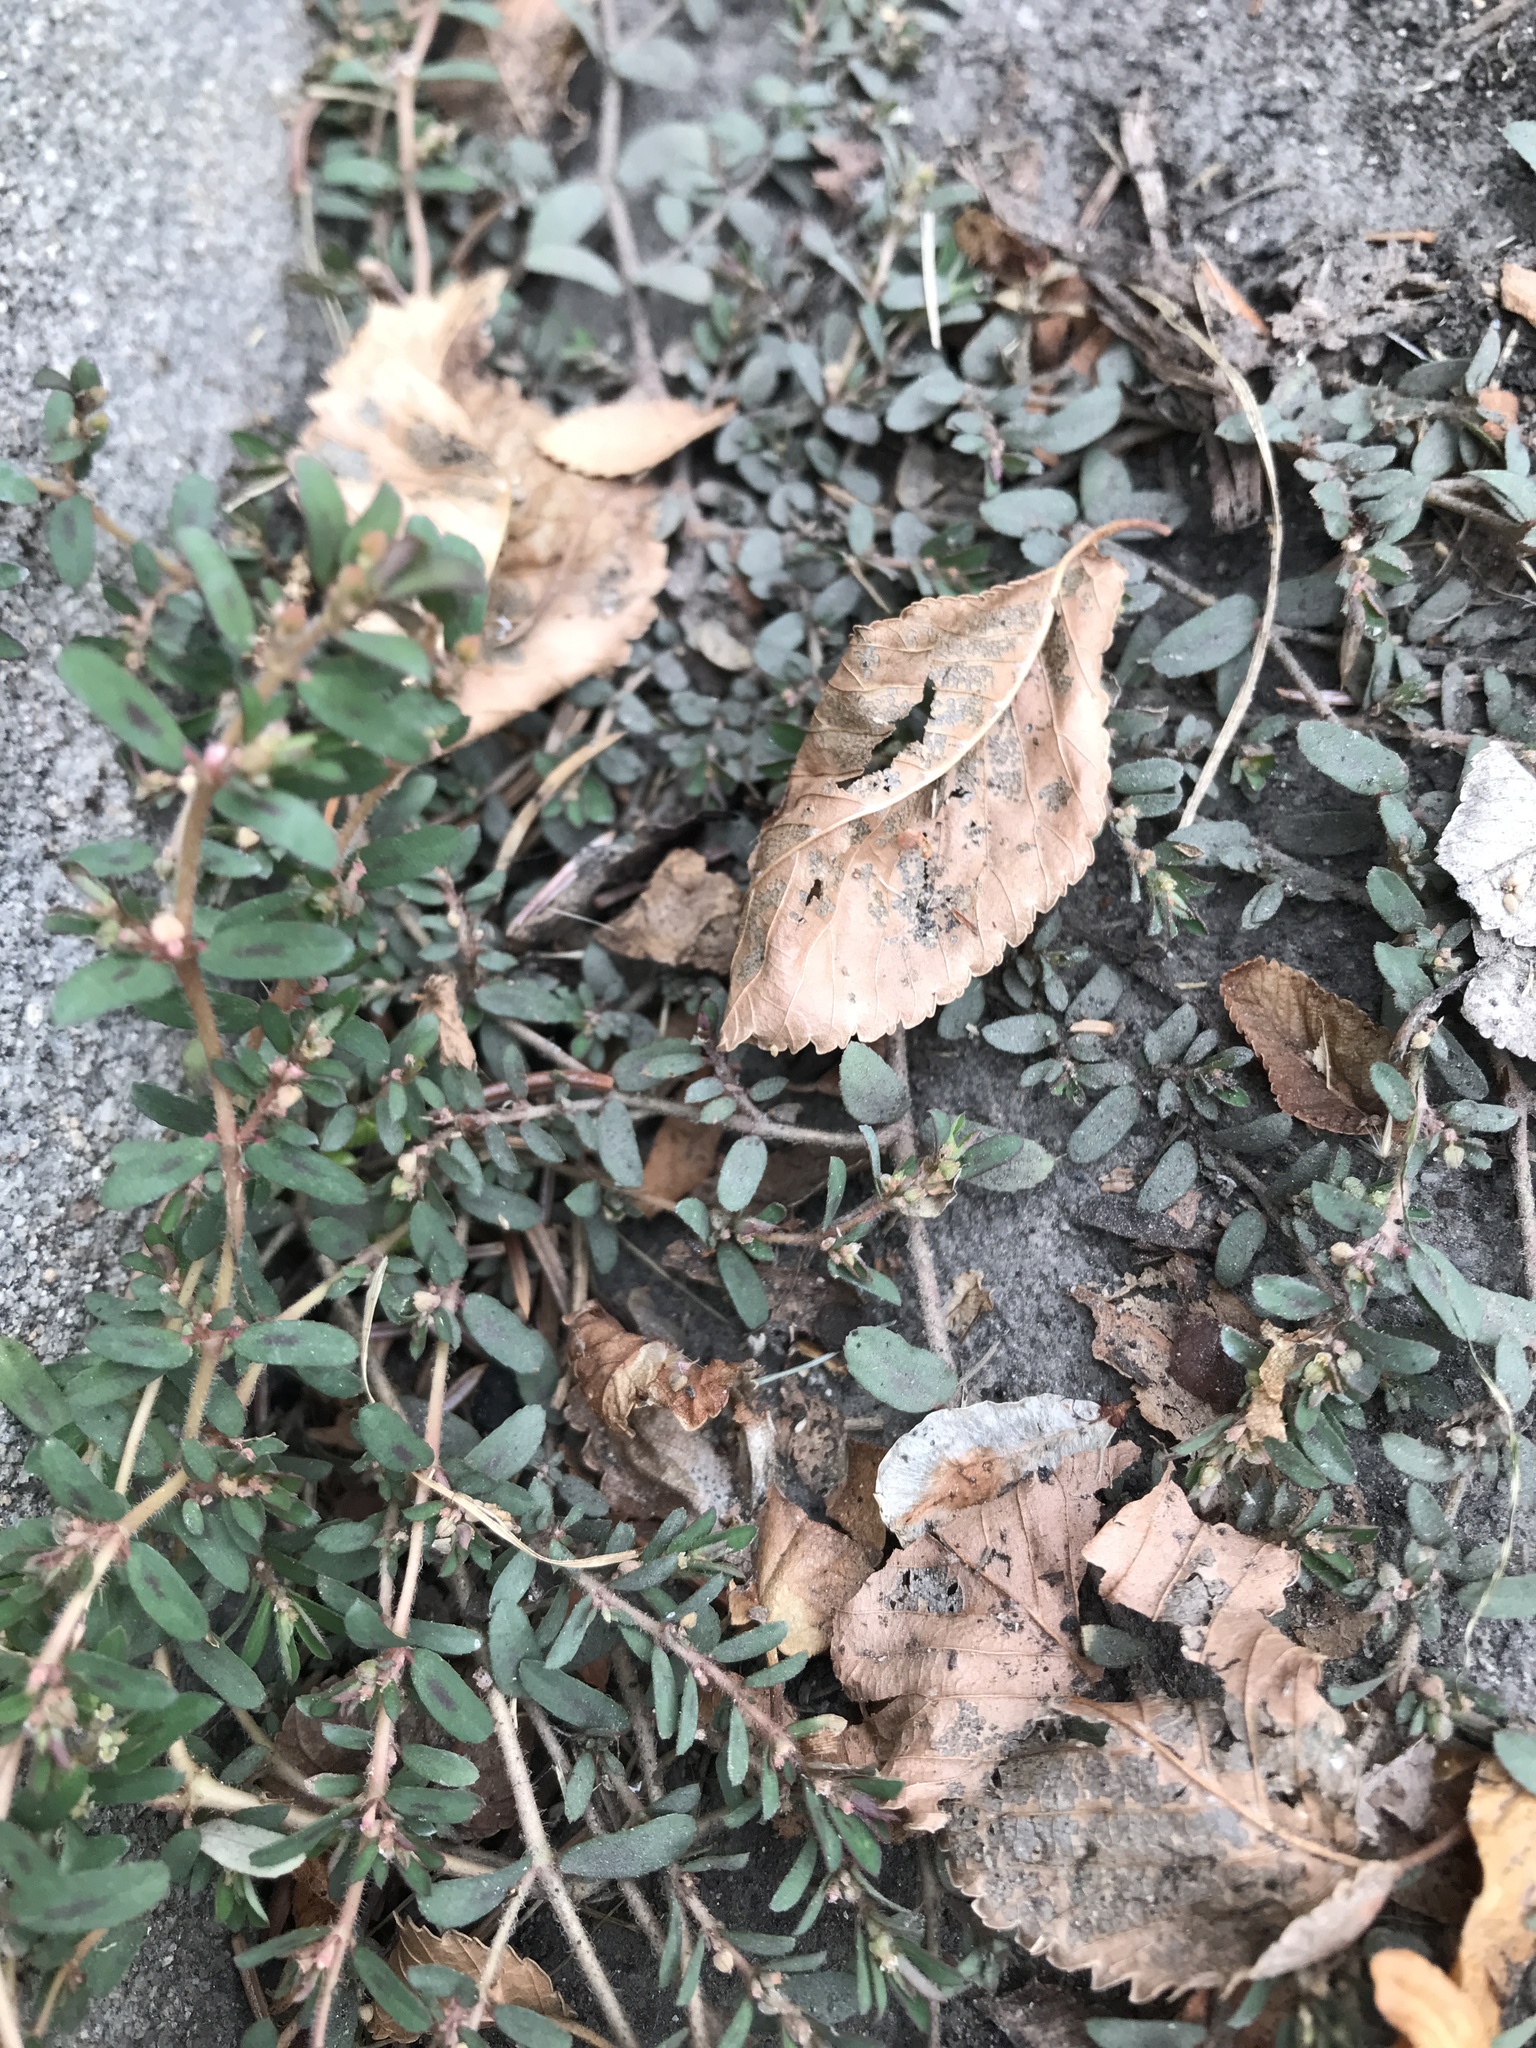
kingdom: Plantae
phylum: Tracheophyta
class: Magnoliopsida
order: Malpighiales
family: Euphorbiaceae
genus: Euphorbia
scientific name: Euphorbia maculata
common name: Spotted spurge
